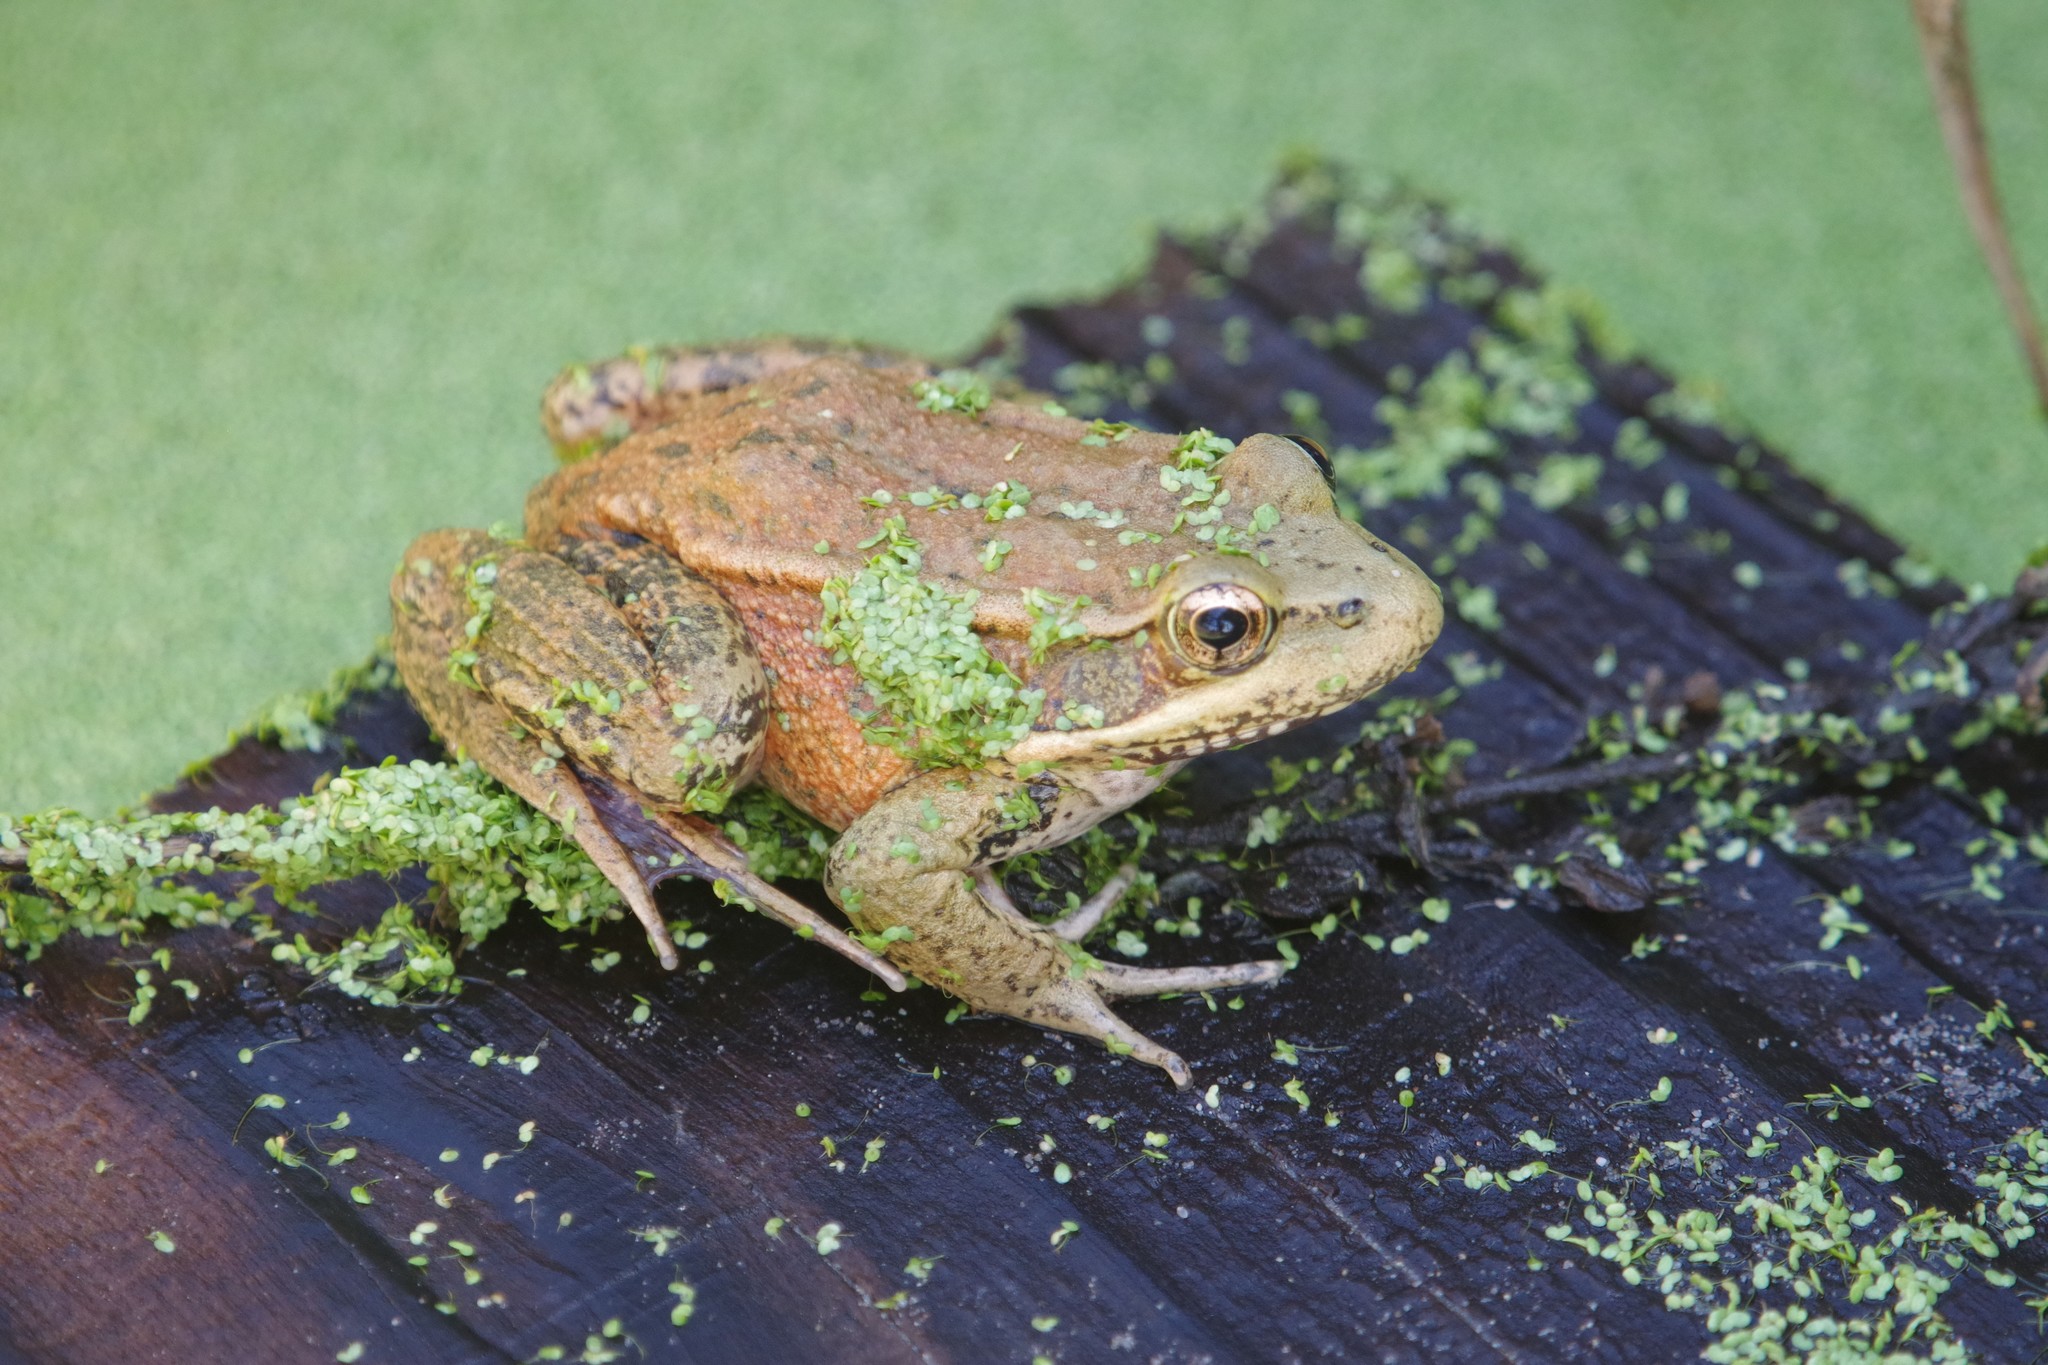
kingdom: Animalia
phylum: Chordata
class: Amphibia
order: Anura
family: Ranidae
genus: Rana
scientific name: Rana draytonii
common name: California red-legged frog
